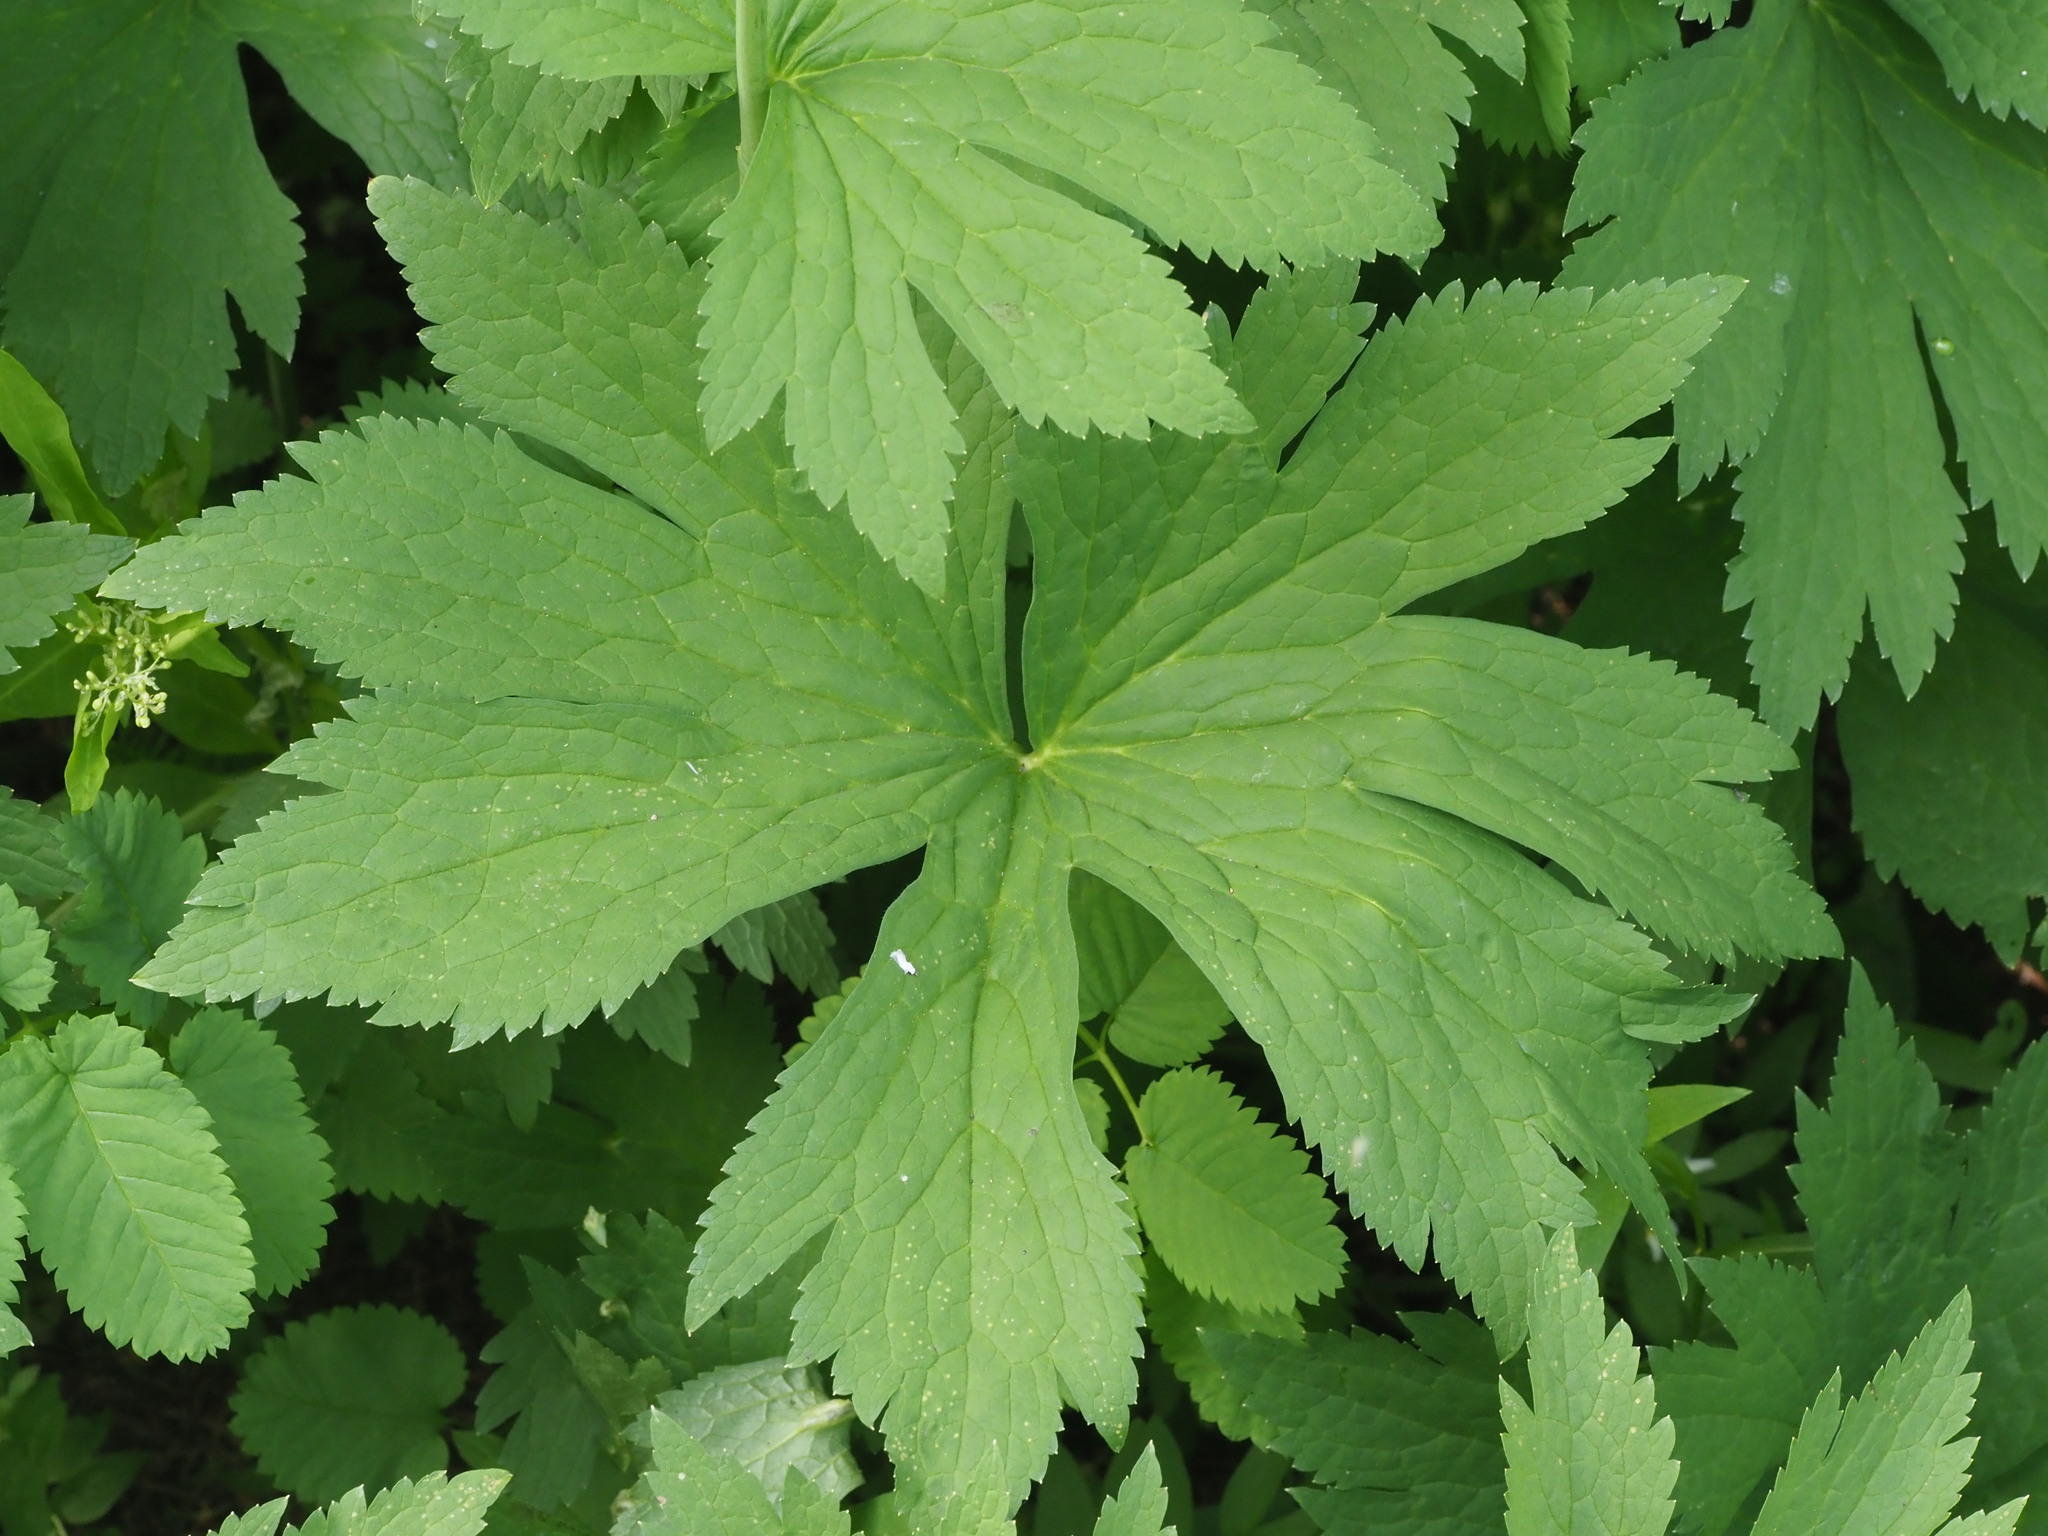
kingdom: Plantae
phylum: Tracheophyta
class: Magnoliopsida
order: Ranunculales
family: Ranunculaceae
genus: Trautvetteria
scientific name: Trautvetteria carolinensis
